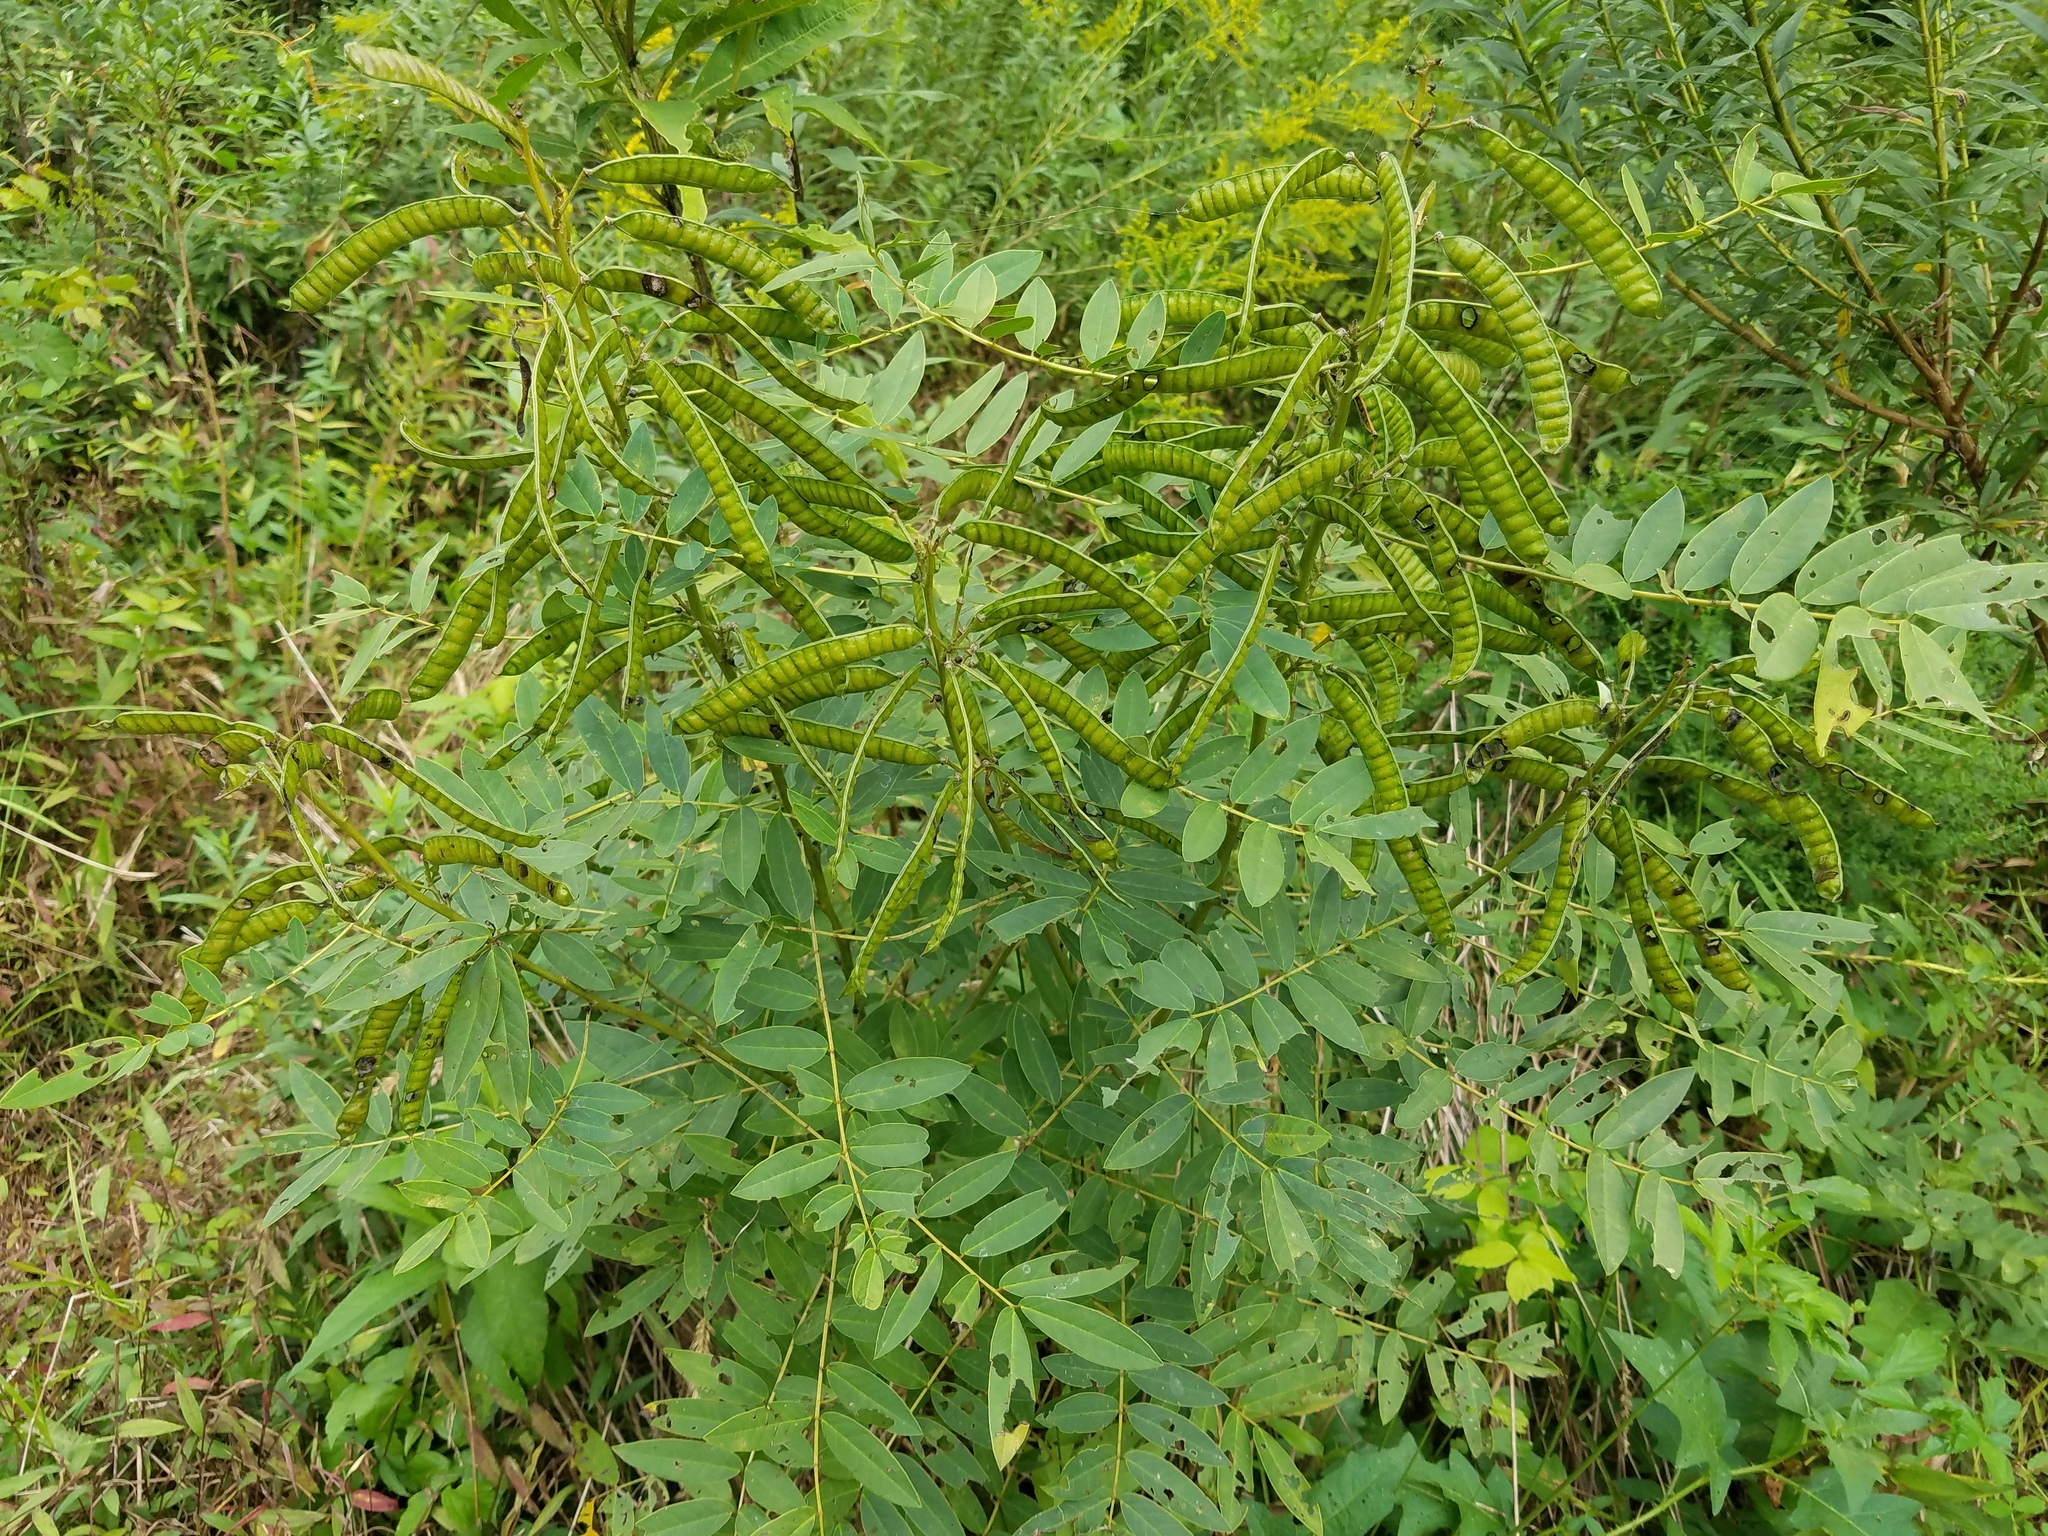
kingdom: Plantae
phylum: Tracheophyta
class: Magnoliopsida
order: Fabales
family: Fabaceae
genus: Senna
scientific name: Senna marilandica
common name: American senna
